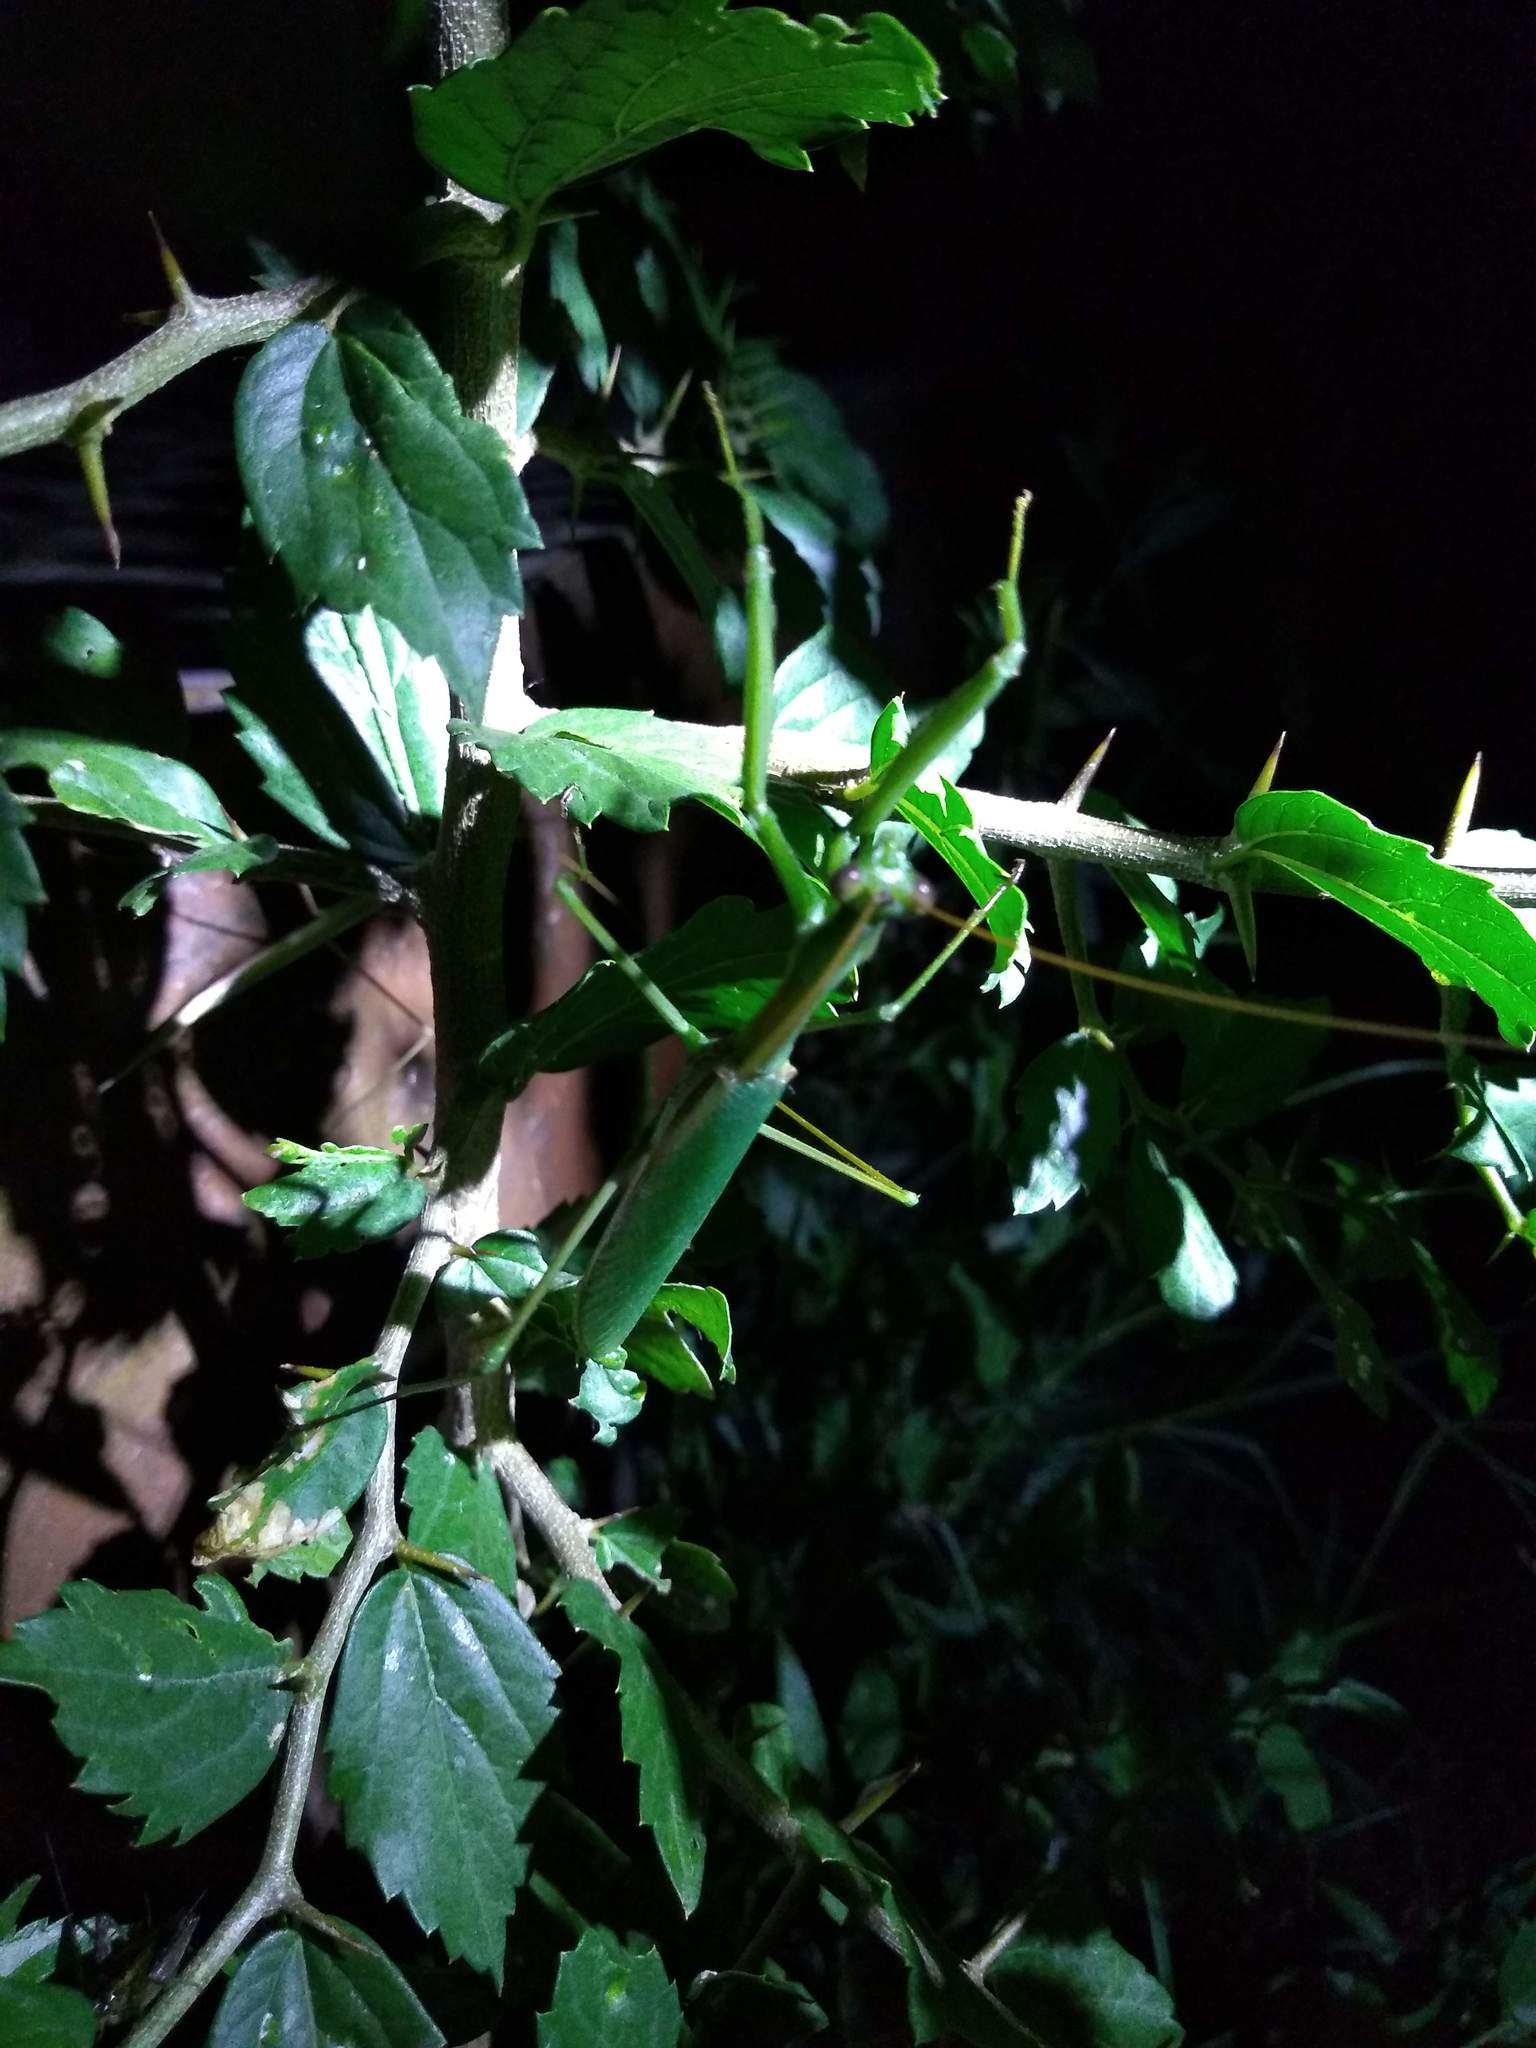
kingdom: Animalia
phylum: Arthropoda
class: Insecta
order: Mantodea
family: Coptopterygidae
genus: Coptopteryx
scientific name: Coptopteryx argentina
